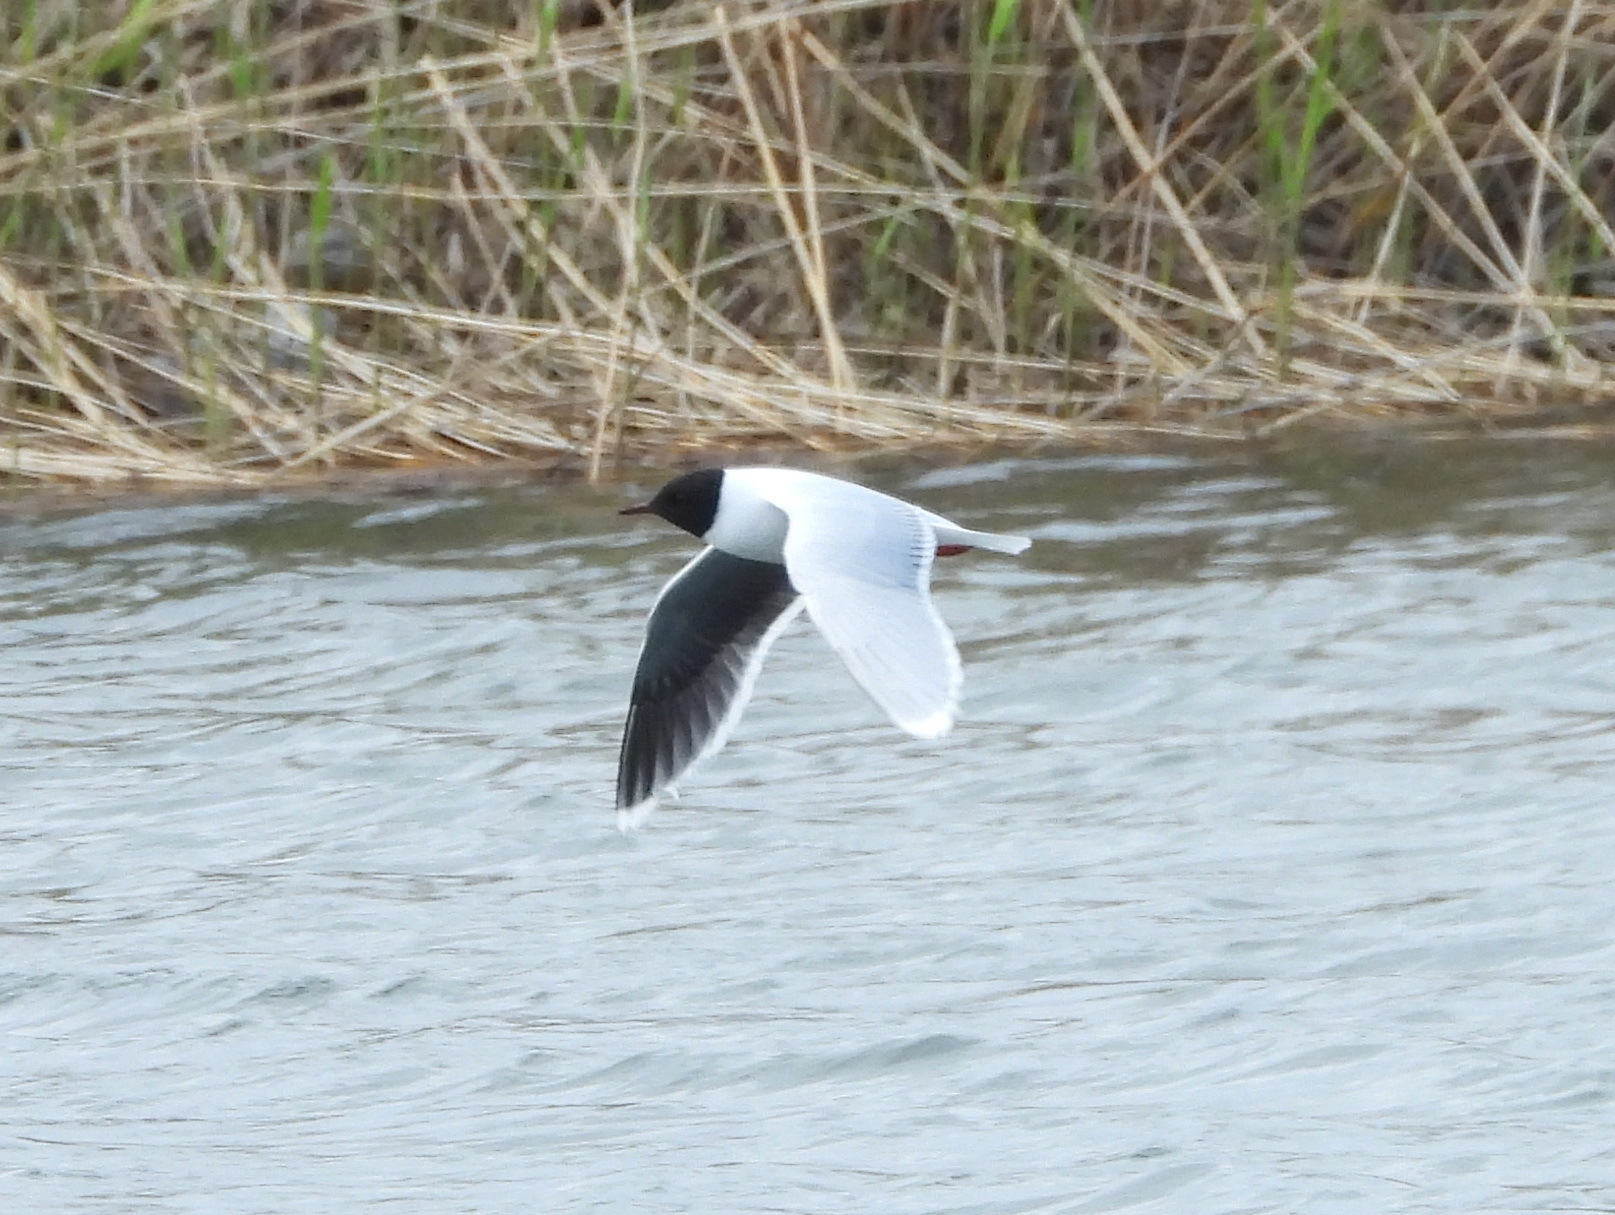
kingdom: Animalia
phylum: Chordata
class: Aves
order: Charadriiformes
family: Laridae
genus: Hydrocoloeus
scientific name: Hydrocoloeus minutus
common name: Little gull
